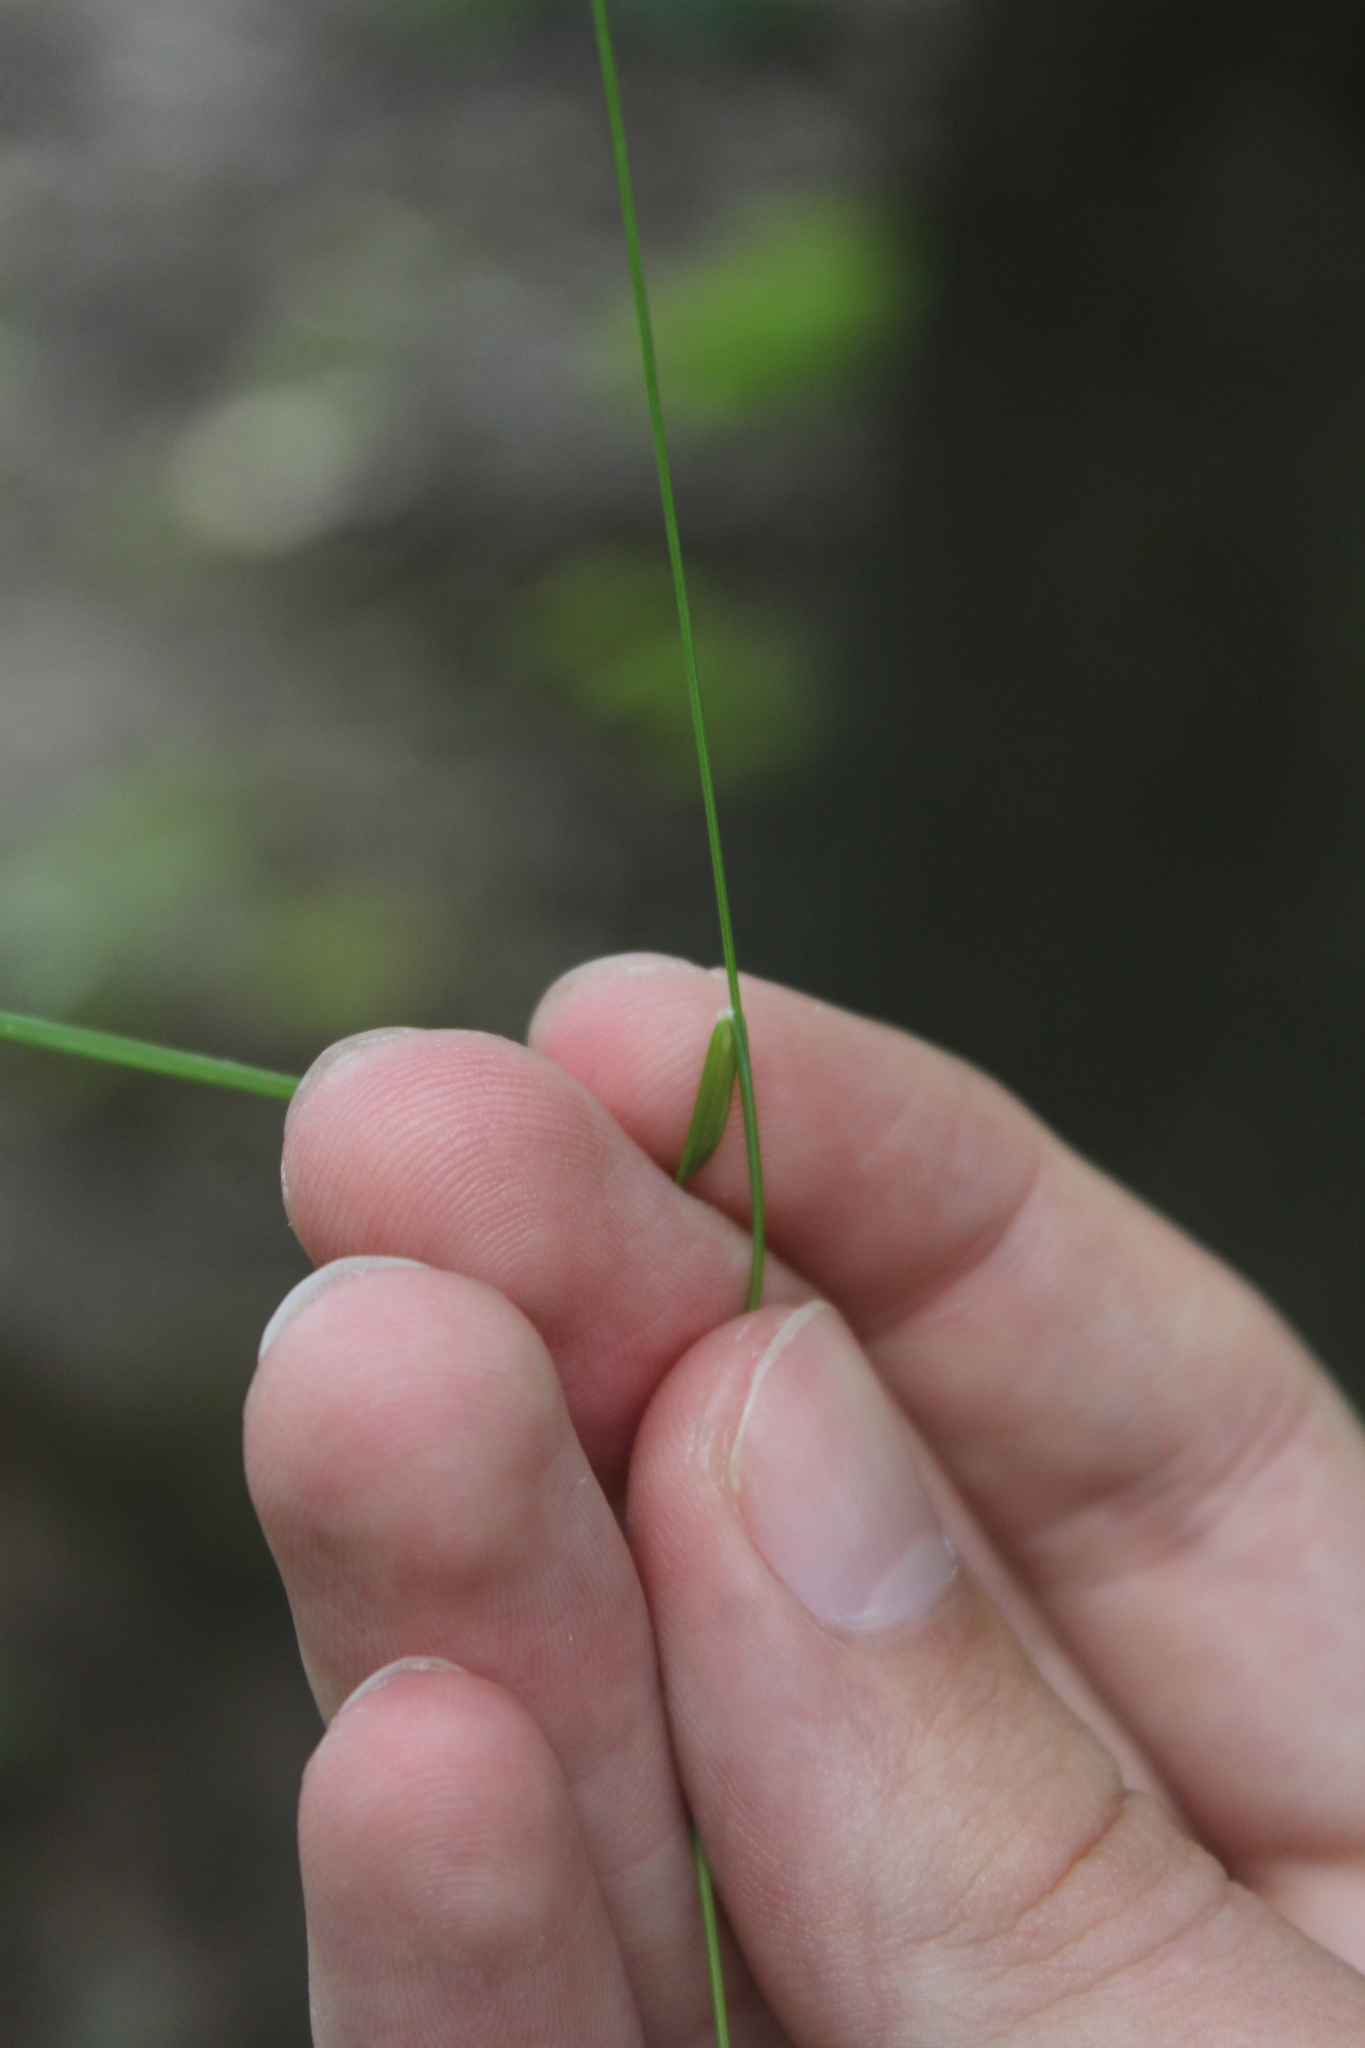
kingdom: Plantae
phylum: Tracheophyta
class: Liliopsida
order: Poales
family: Poaceae
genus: Poa
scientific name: Poa palustris
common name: Swamp meadow-grass
